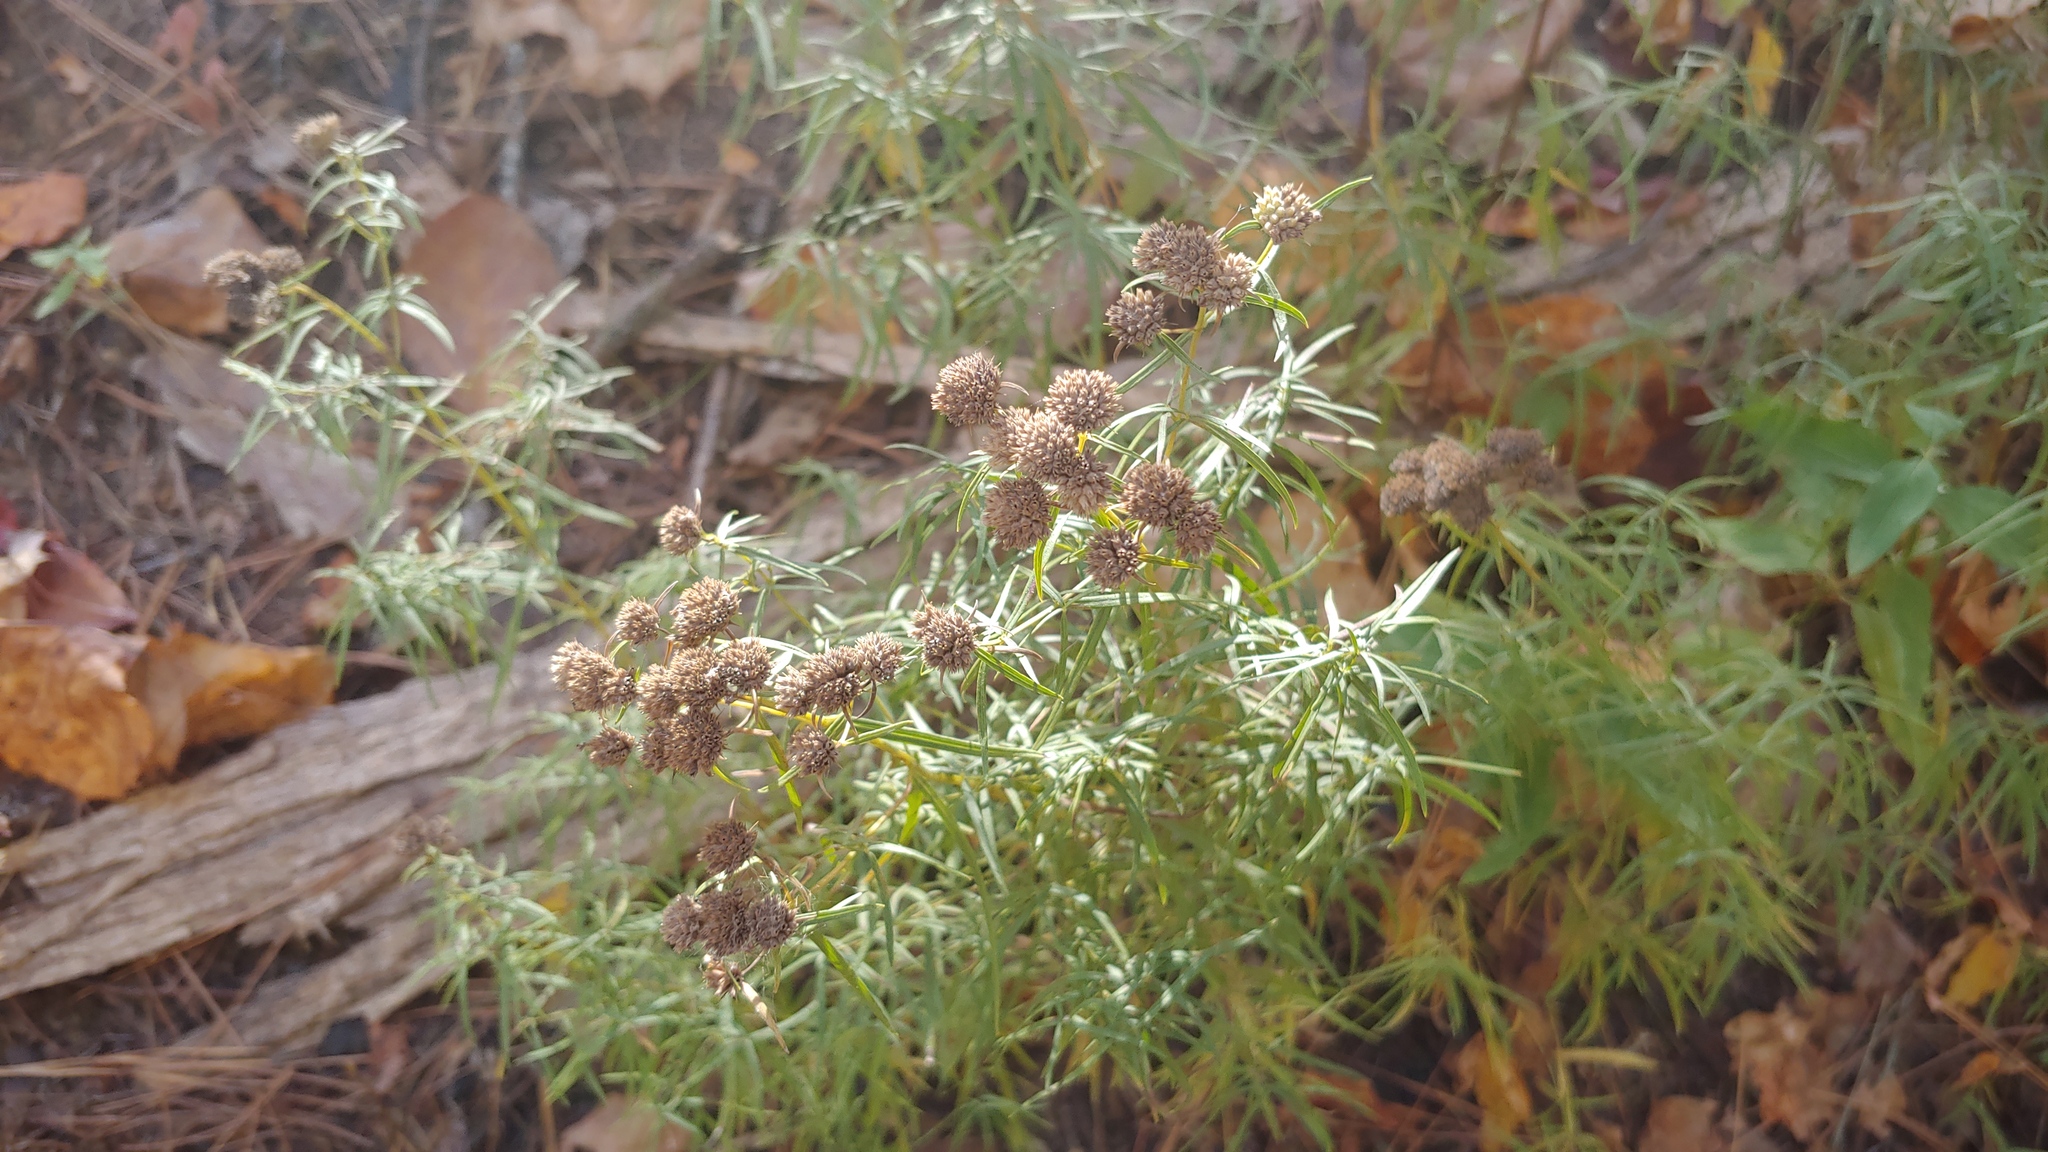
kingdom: Plantae
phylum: Tracheophyta
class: Magnoliopsida
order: Lamiales
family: Lamiaceae
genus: Pycnanthemum
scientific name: Pycnanthemum tenuifolium
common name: Narrow-leaf mountain-mint
